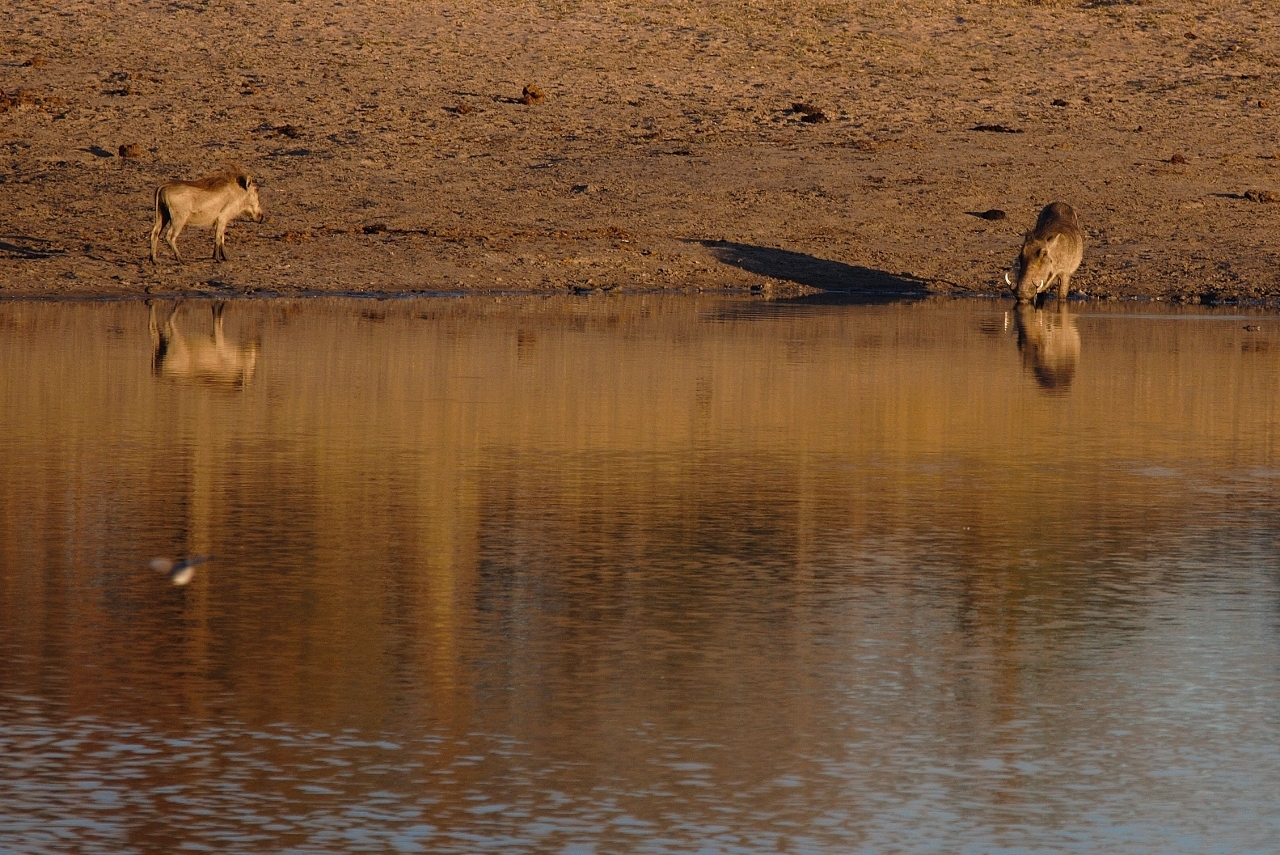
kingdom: Animalia
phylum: Chordata
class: Mammalia
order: Artiodactyla
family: Suidae
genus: Phacochoerus
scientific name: Phacochoerus africanus
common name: Common warthog
